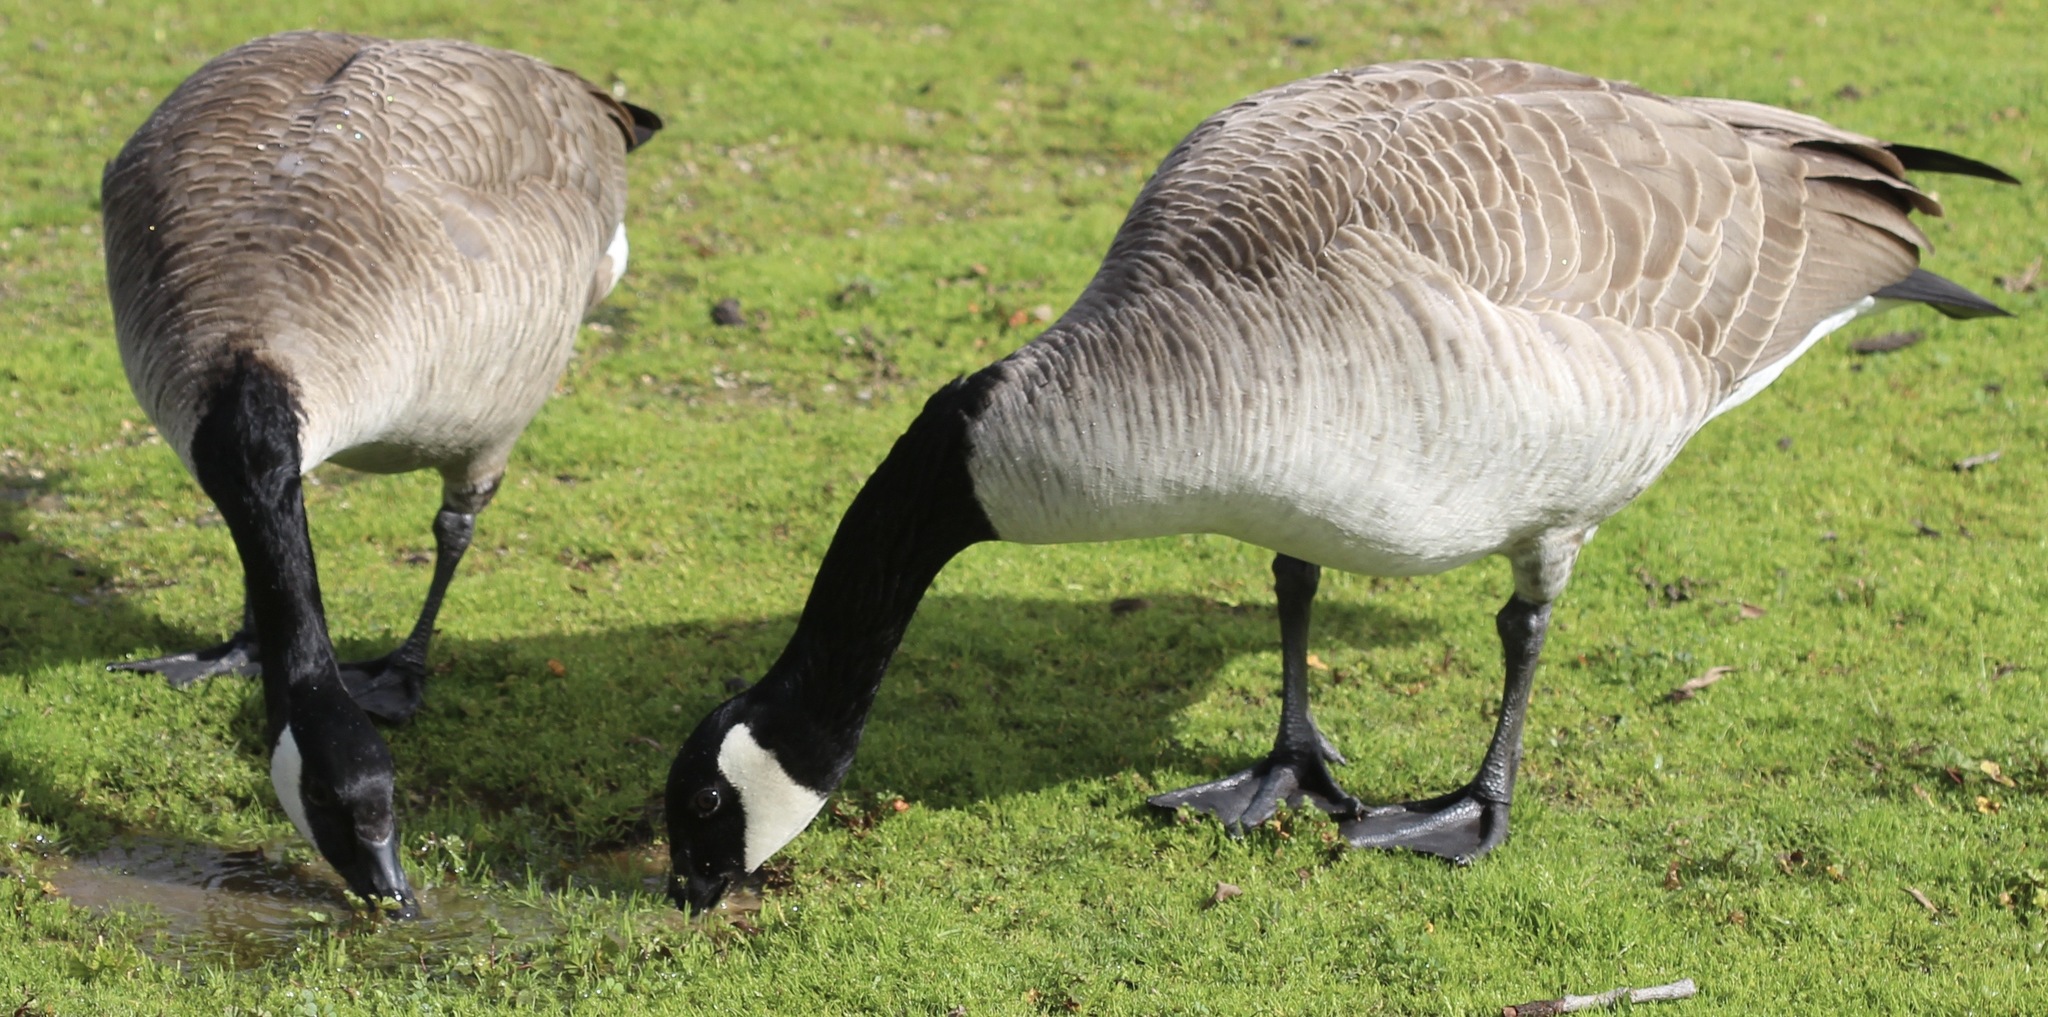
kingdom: Animalia
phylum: Chordata
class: Aves
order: Anseriformes
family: Anatidae
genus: Branta
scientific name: Branta canadensis
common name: Canada goose
